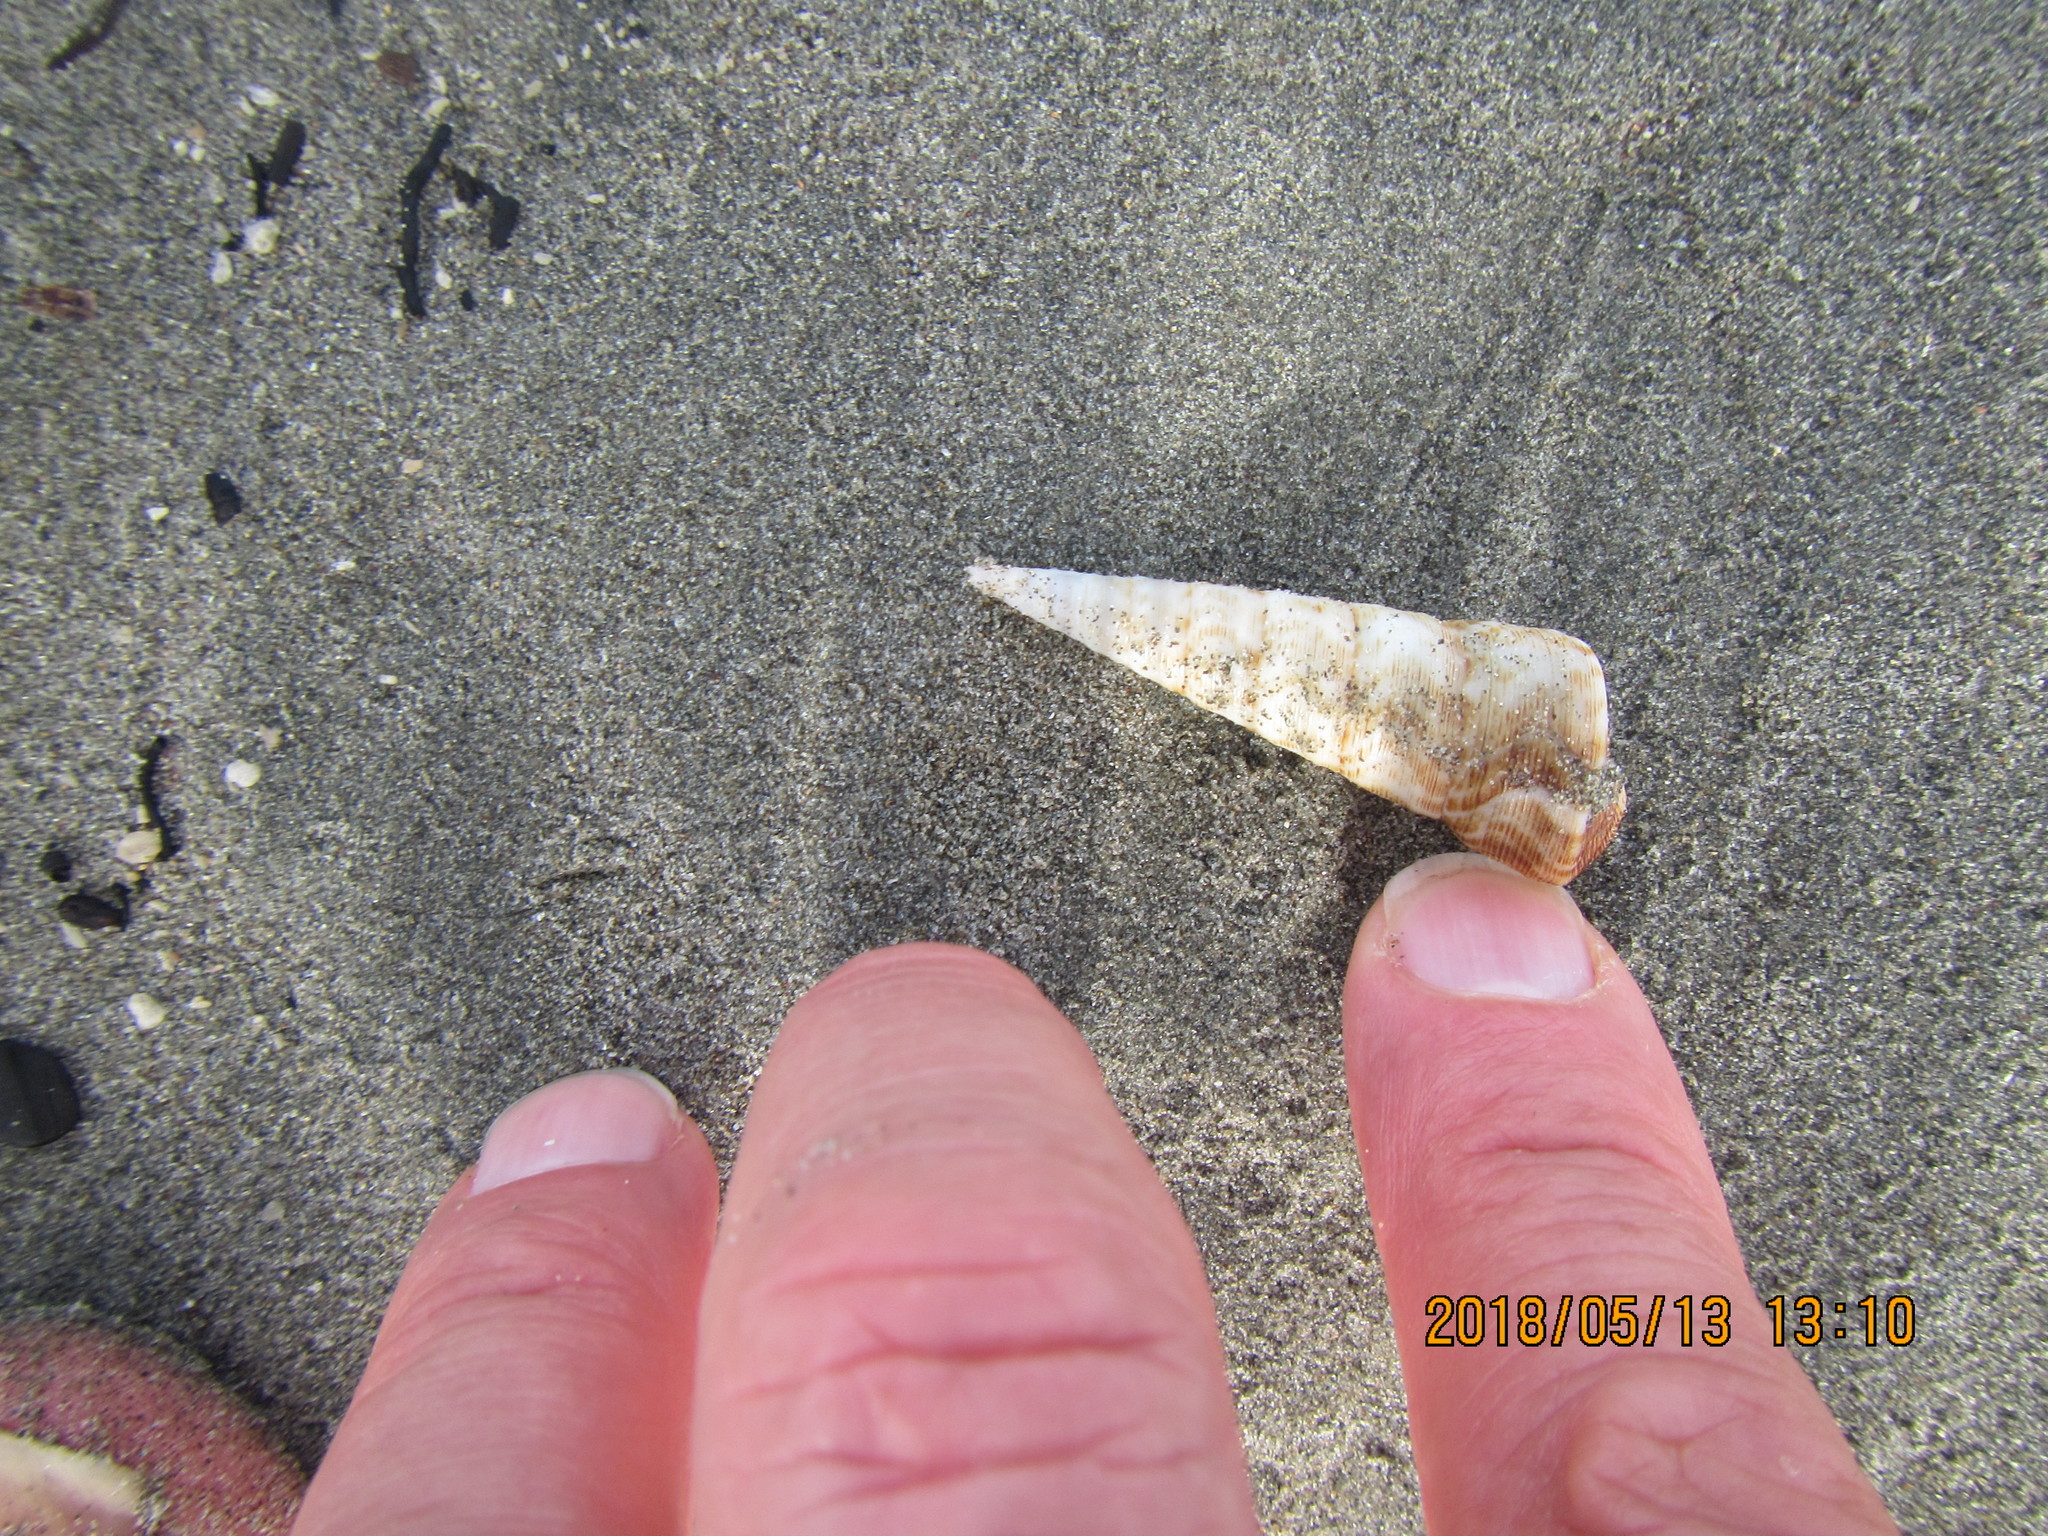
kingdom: Animalia
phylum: Mollusca
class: Gastropoda
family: Turritellidae
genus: Maoricolpus
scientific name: Maoricolpus roseus
